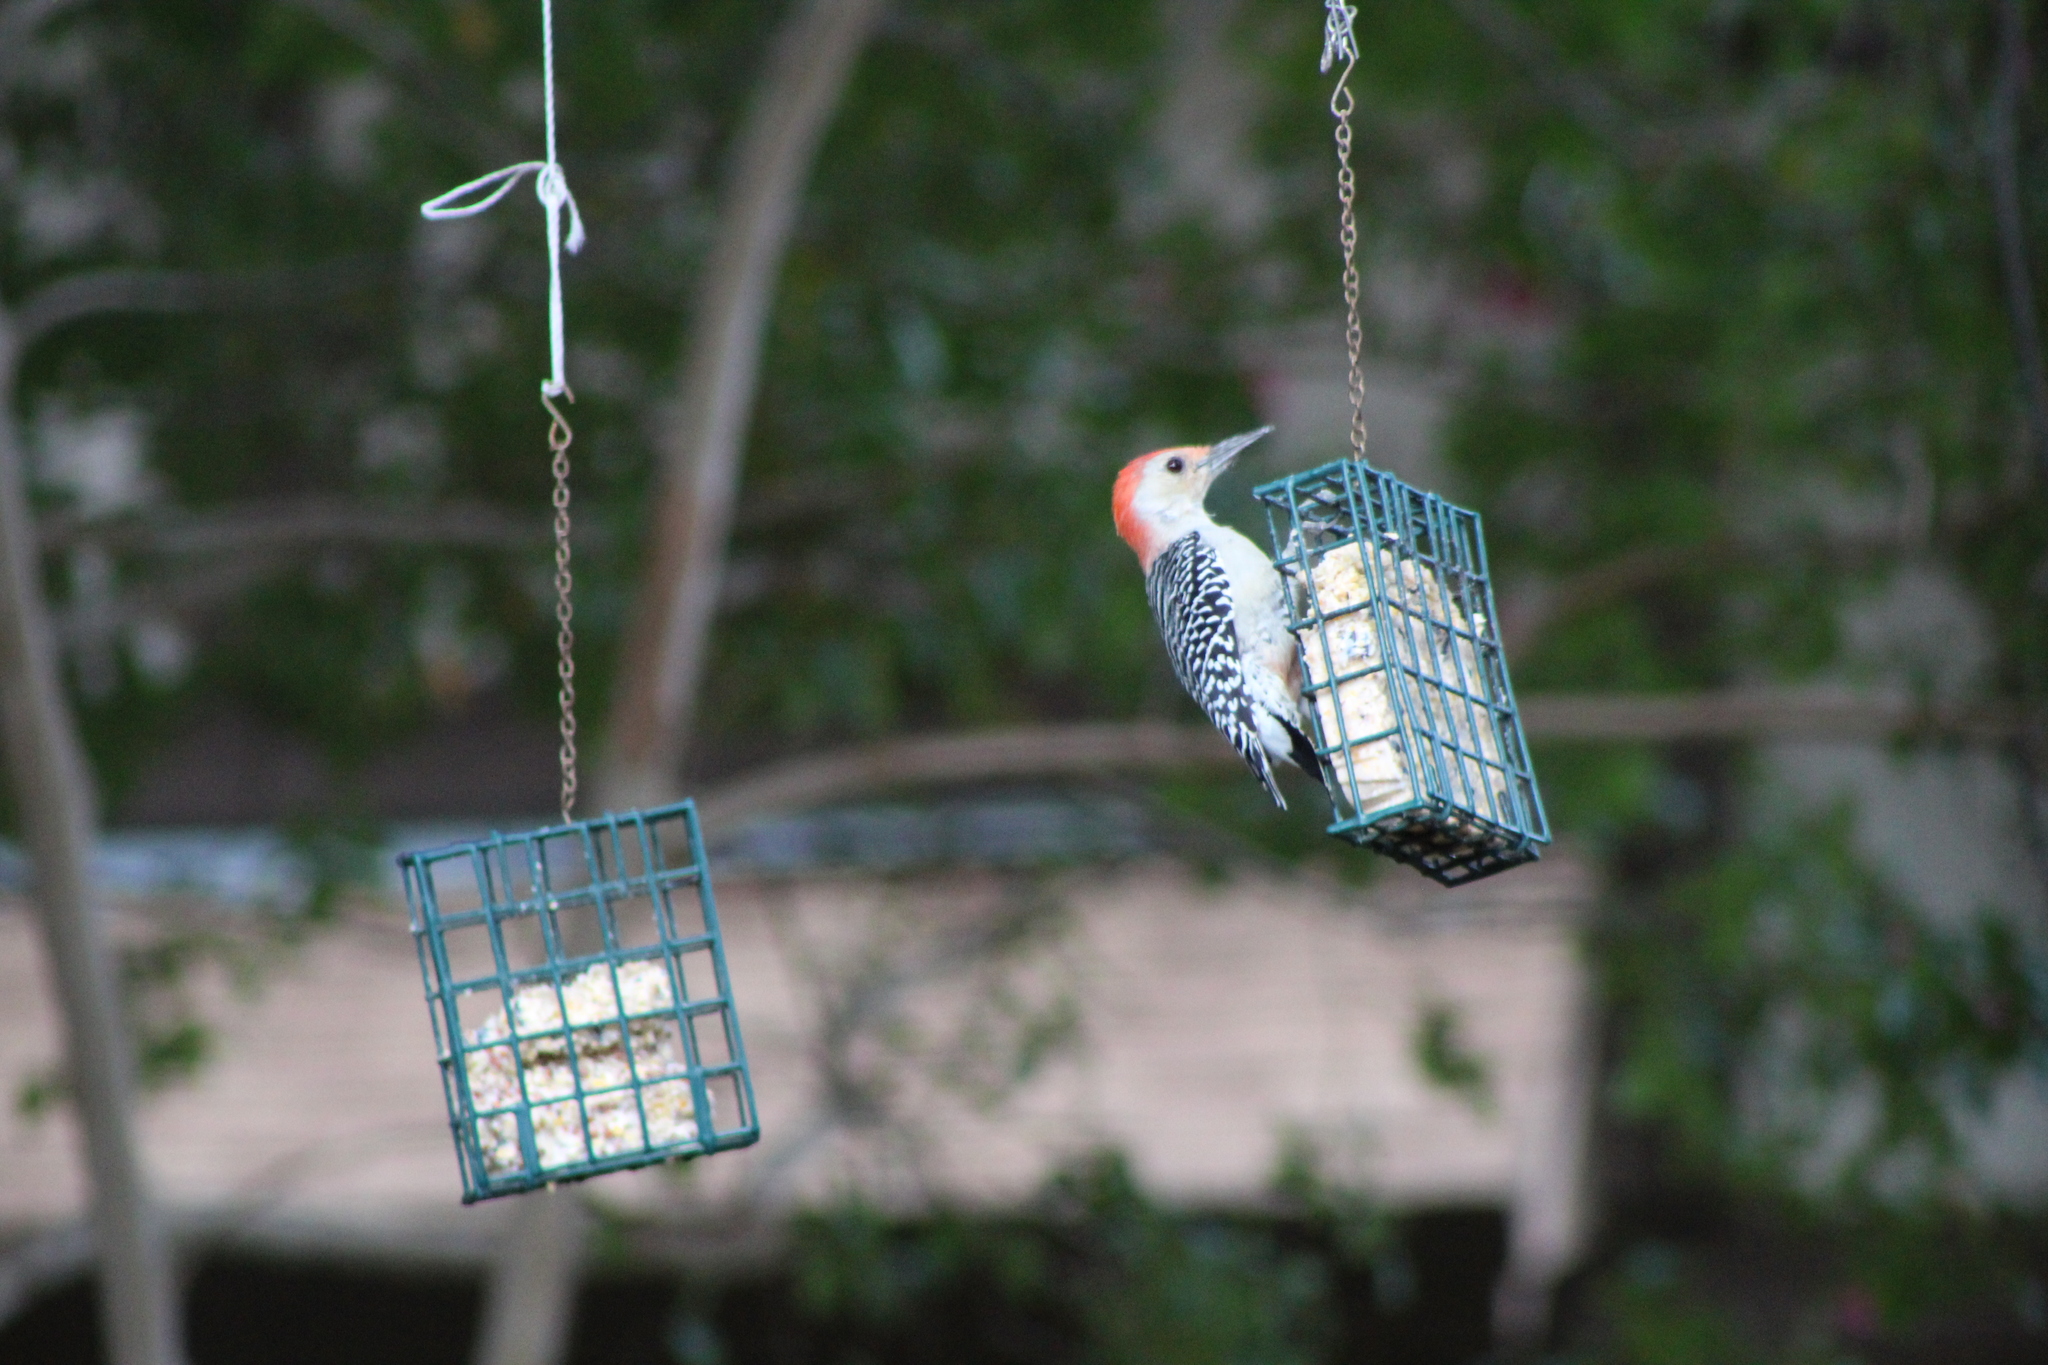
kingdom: Animalia
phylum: Chordata
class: Aves
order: Piciformes
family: Picidae
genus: Melanerpes
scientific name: Melanerpes carolinus
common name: Red-bellied woodpecker
